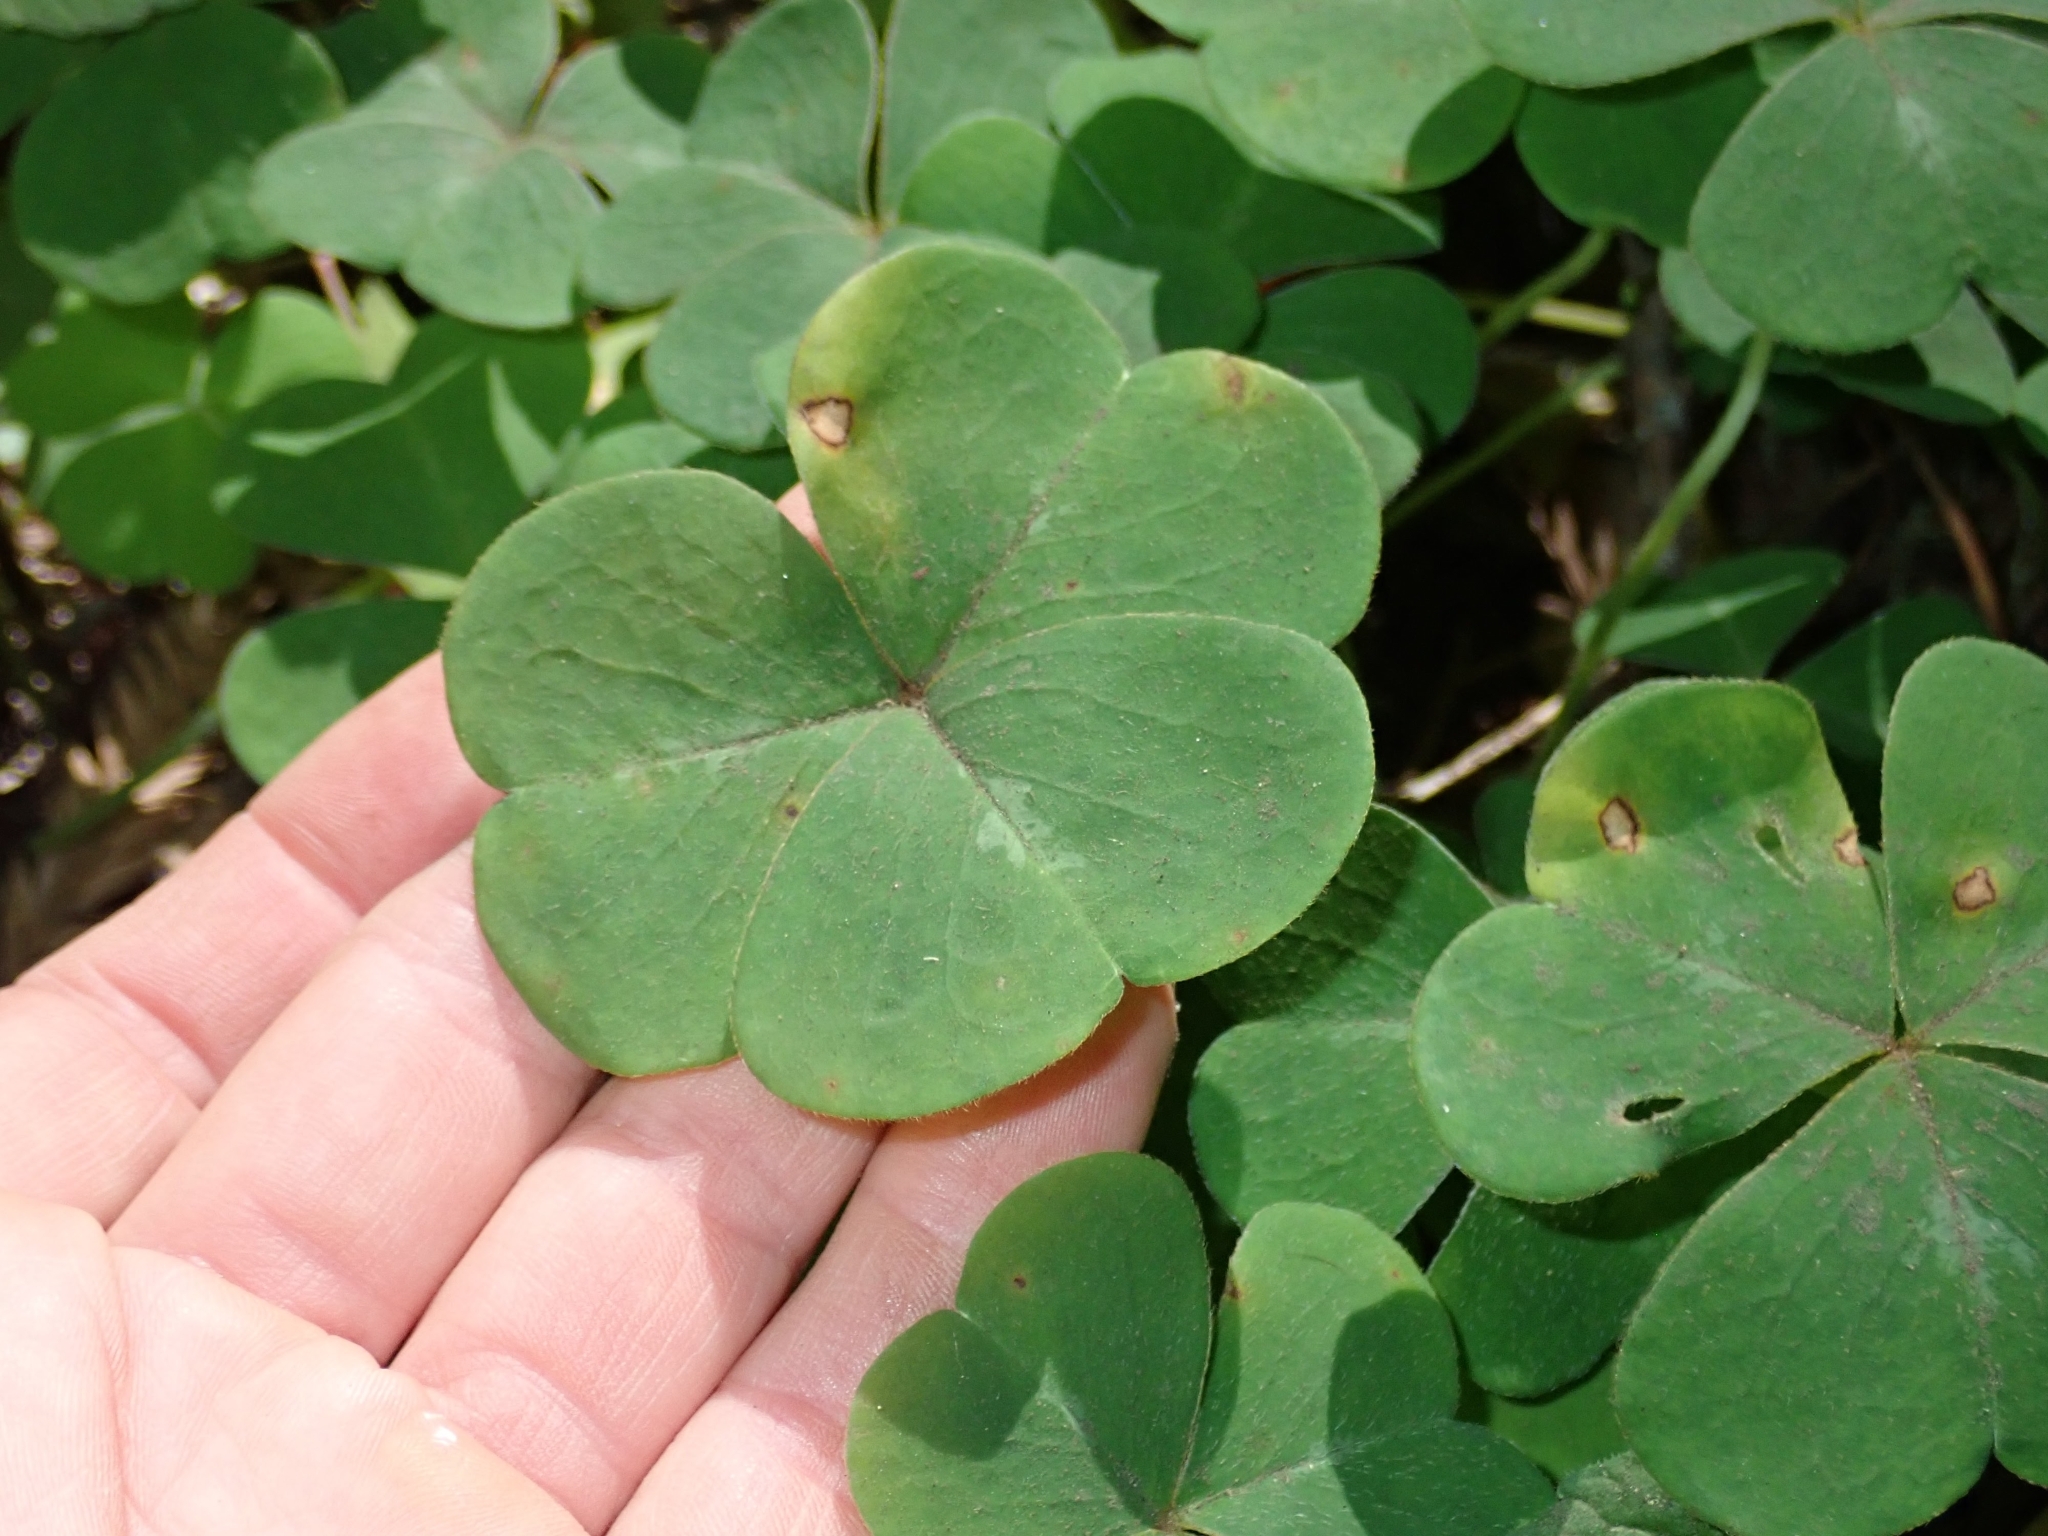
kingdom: Plantae
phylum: Tracheophyta
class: Magnoliopsida
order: Oxalidales
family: Oxalidaceae
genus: Oxalis
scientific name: Oxalis oregana
